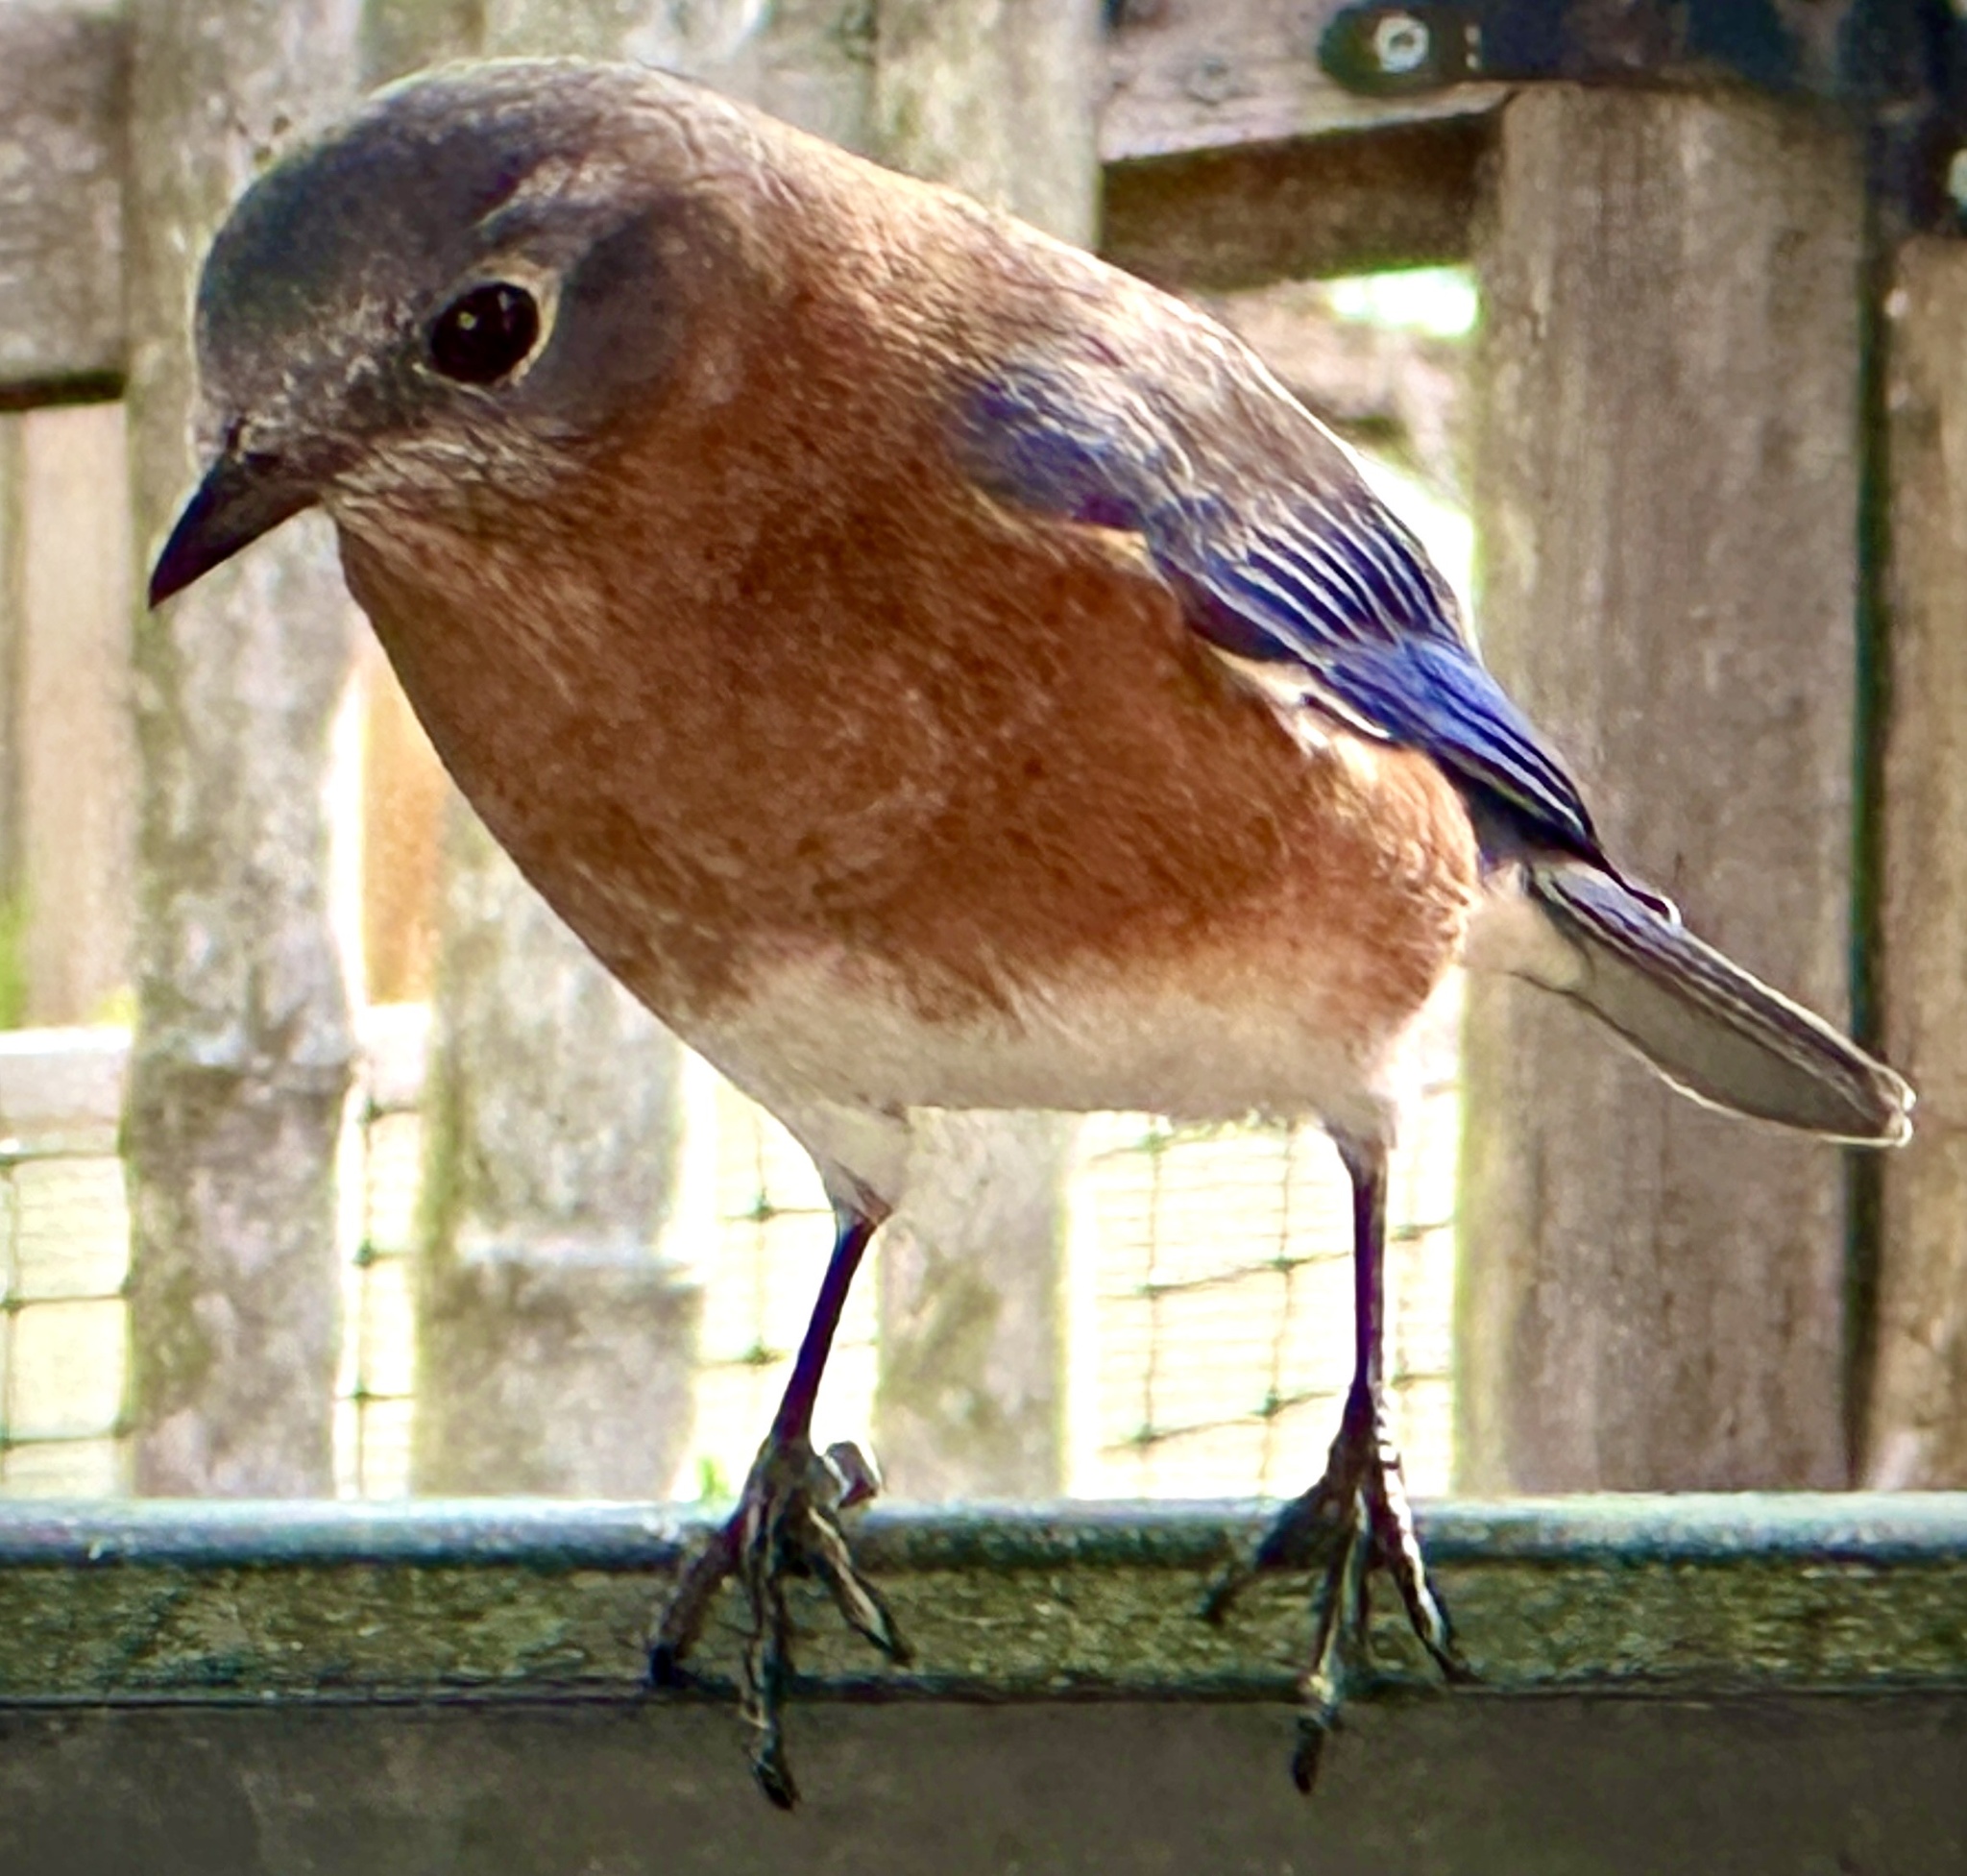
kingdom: Animalia
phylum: Chordata
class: Aves
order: Passeriformes
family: Turdidae
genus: Sialia
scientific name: Sialia sialis
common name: Eastern bluebird
